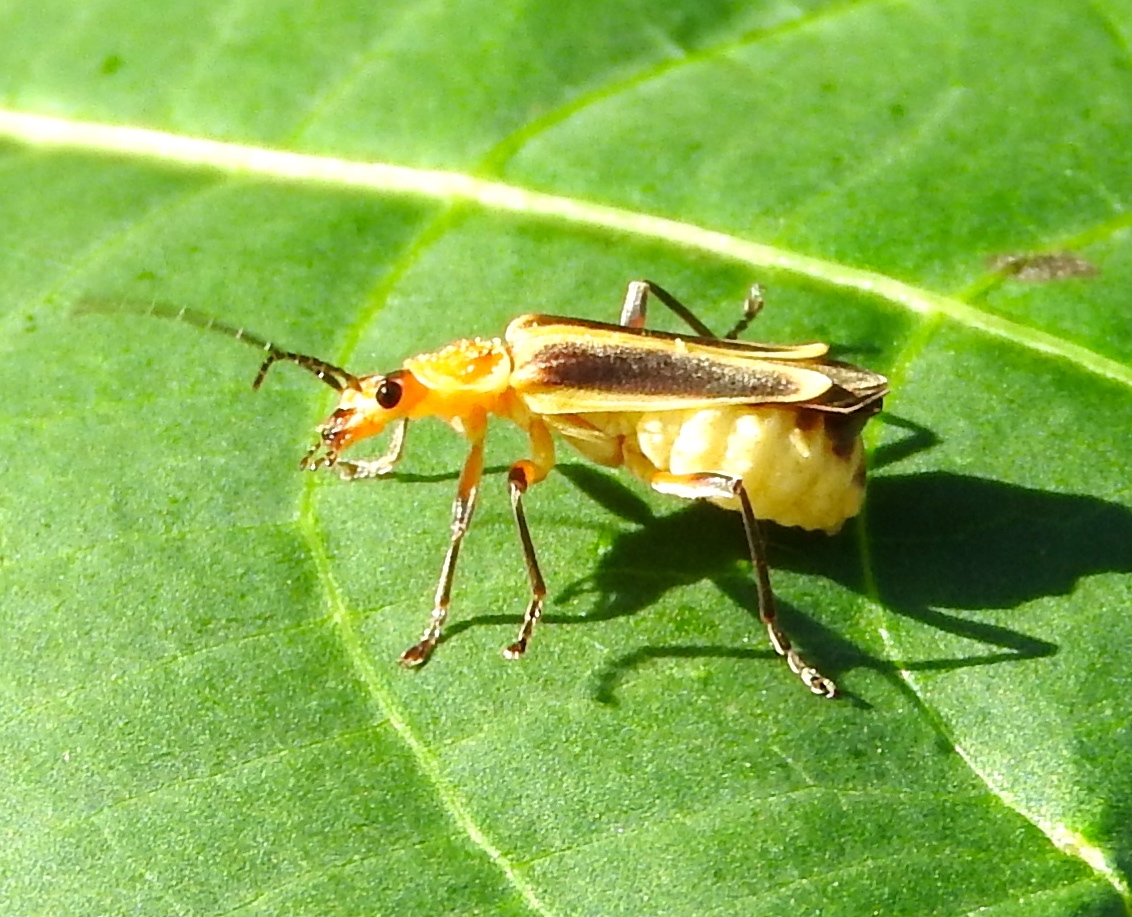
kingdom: Animalia
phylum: Arthropoda
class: Insecta
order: Coleoptera
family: Cantharidae
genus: Chauliognathus
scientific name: Chauliognathus
